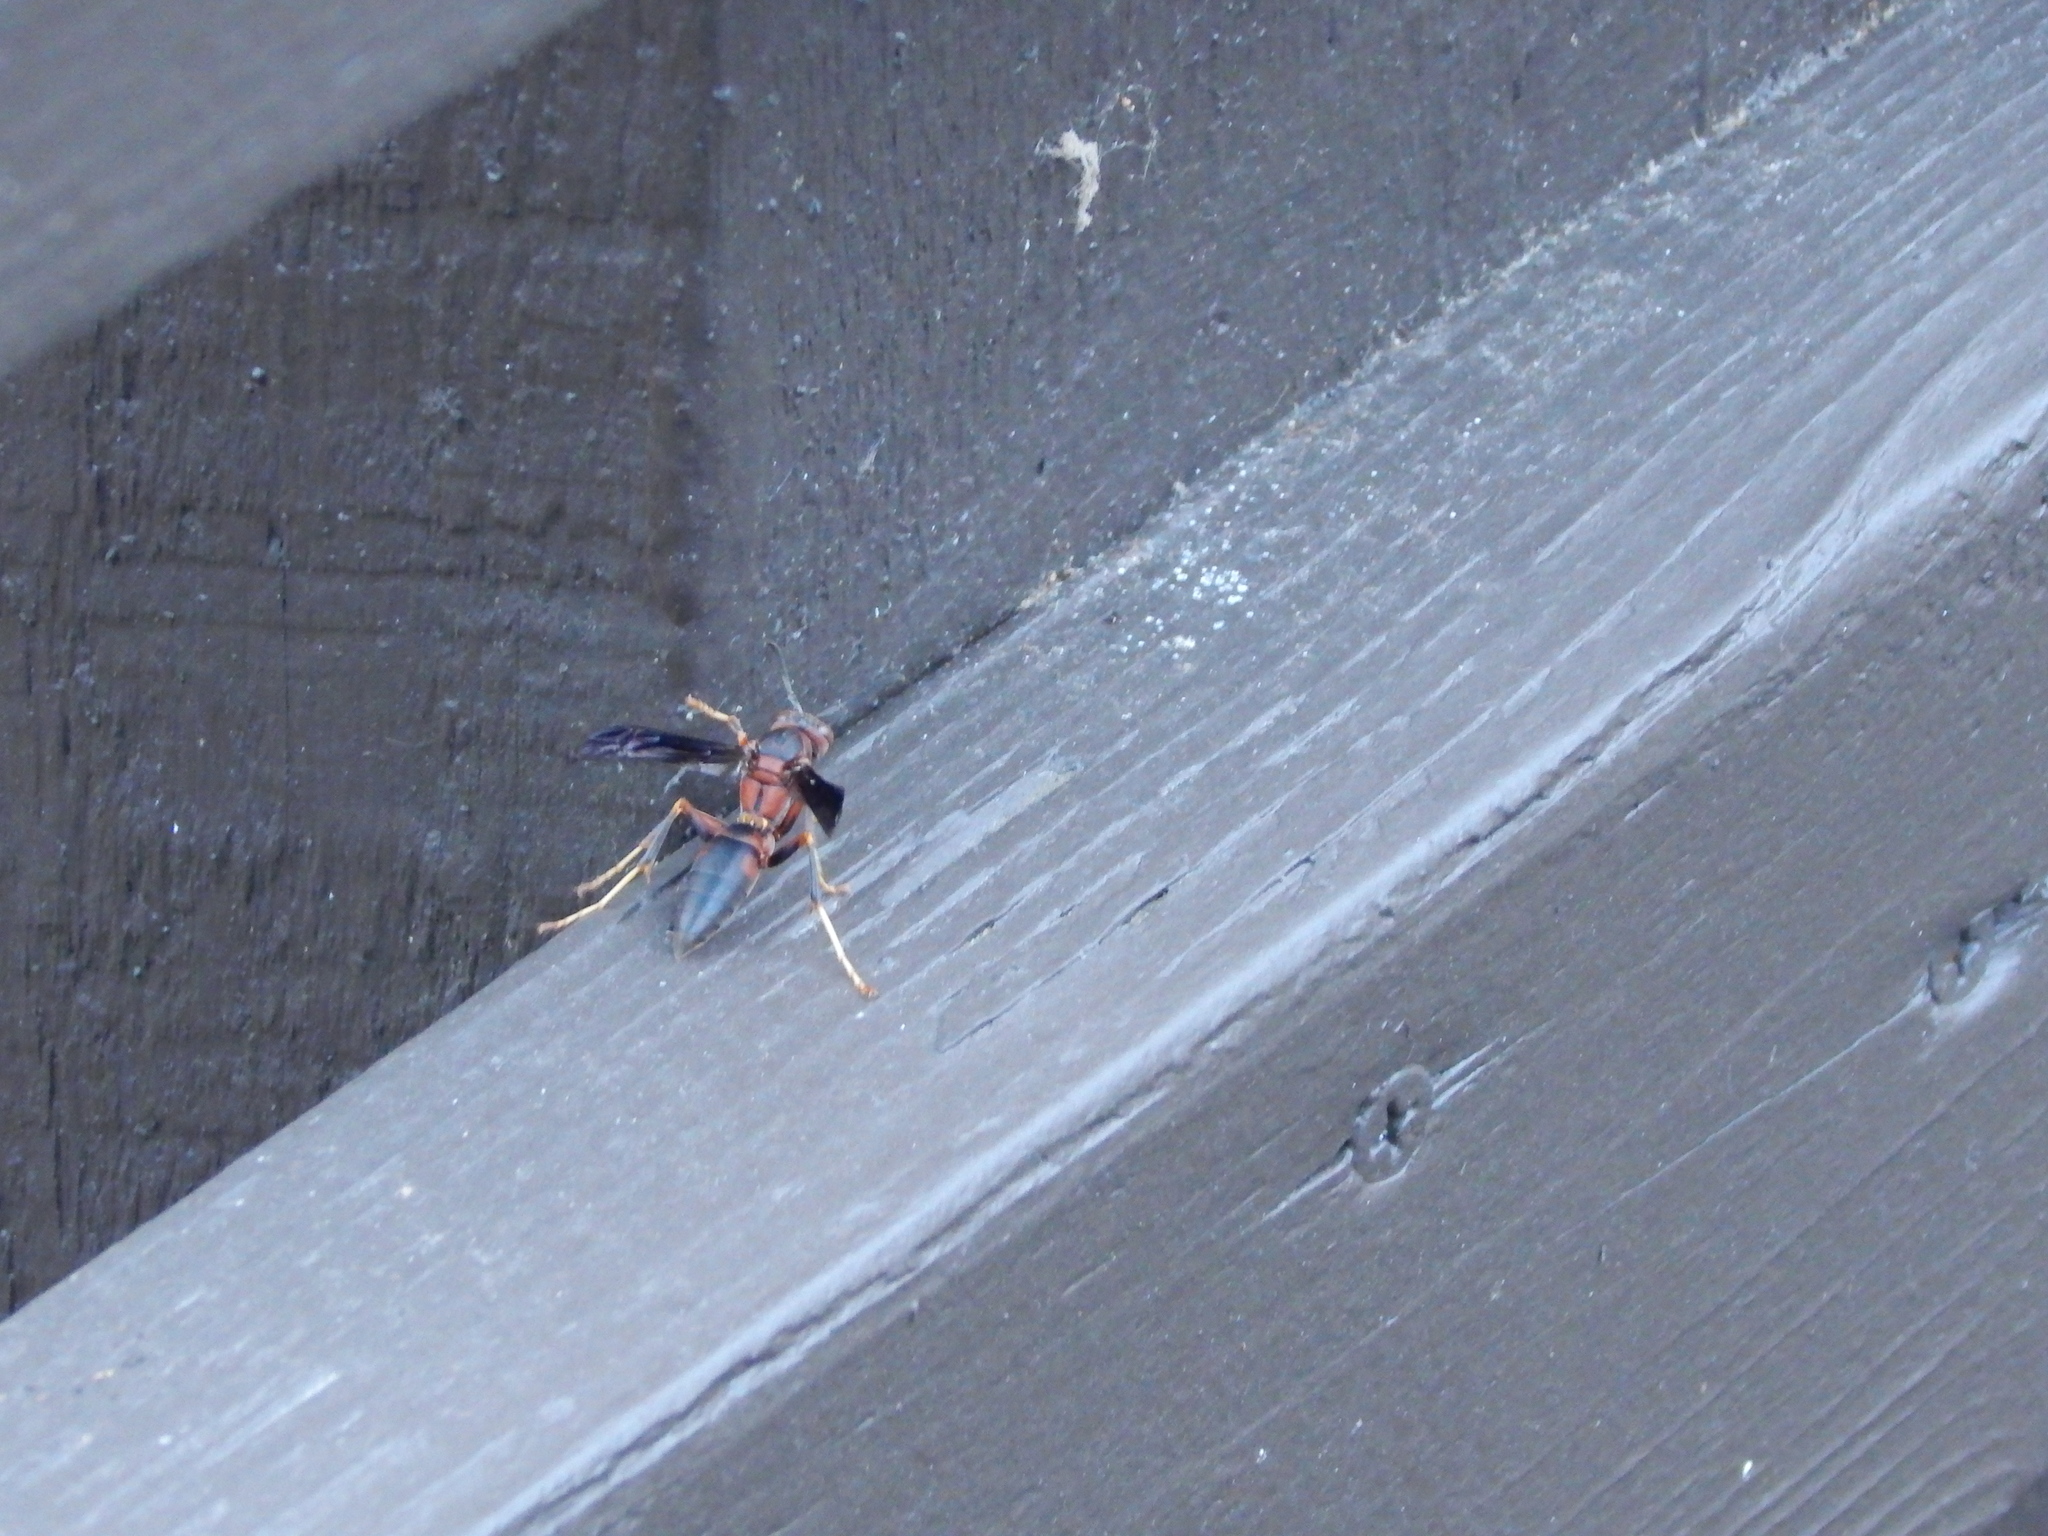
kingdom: Animalia
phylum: Arthropoda
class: Insecta
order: Hymenoptera
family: Eumenidae
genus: Polistes
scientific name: Polistes metricus
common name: Metric paper wasp
